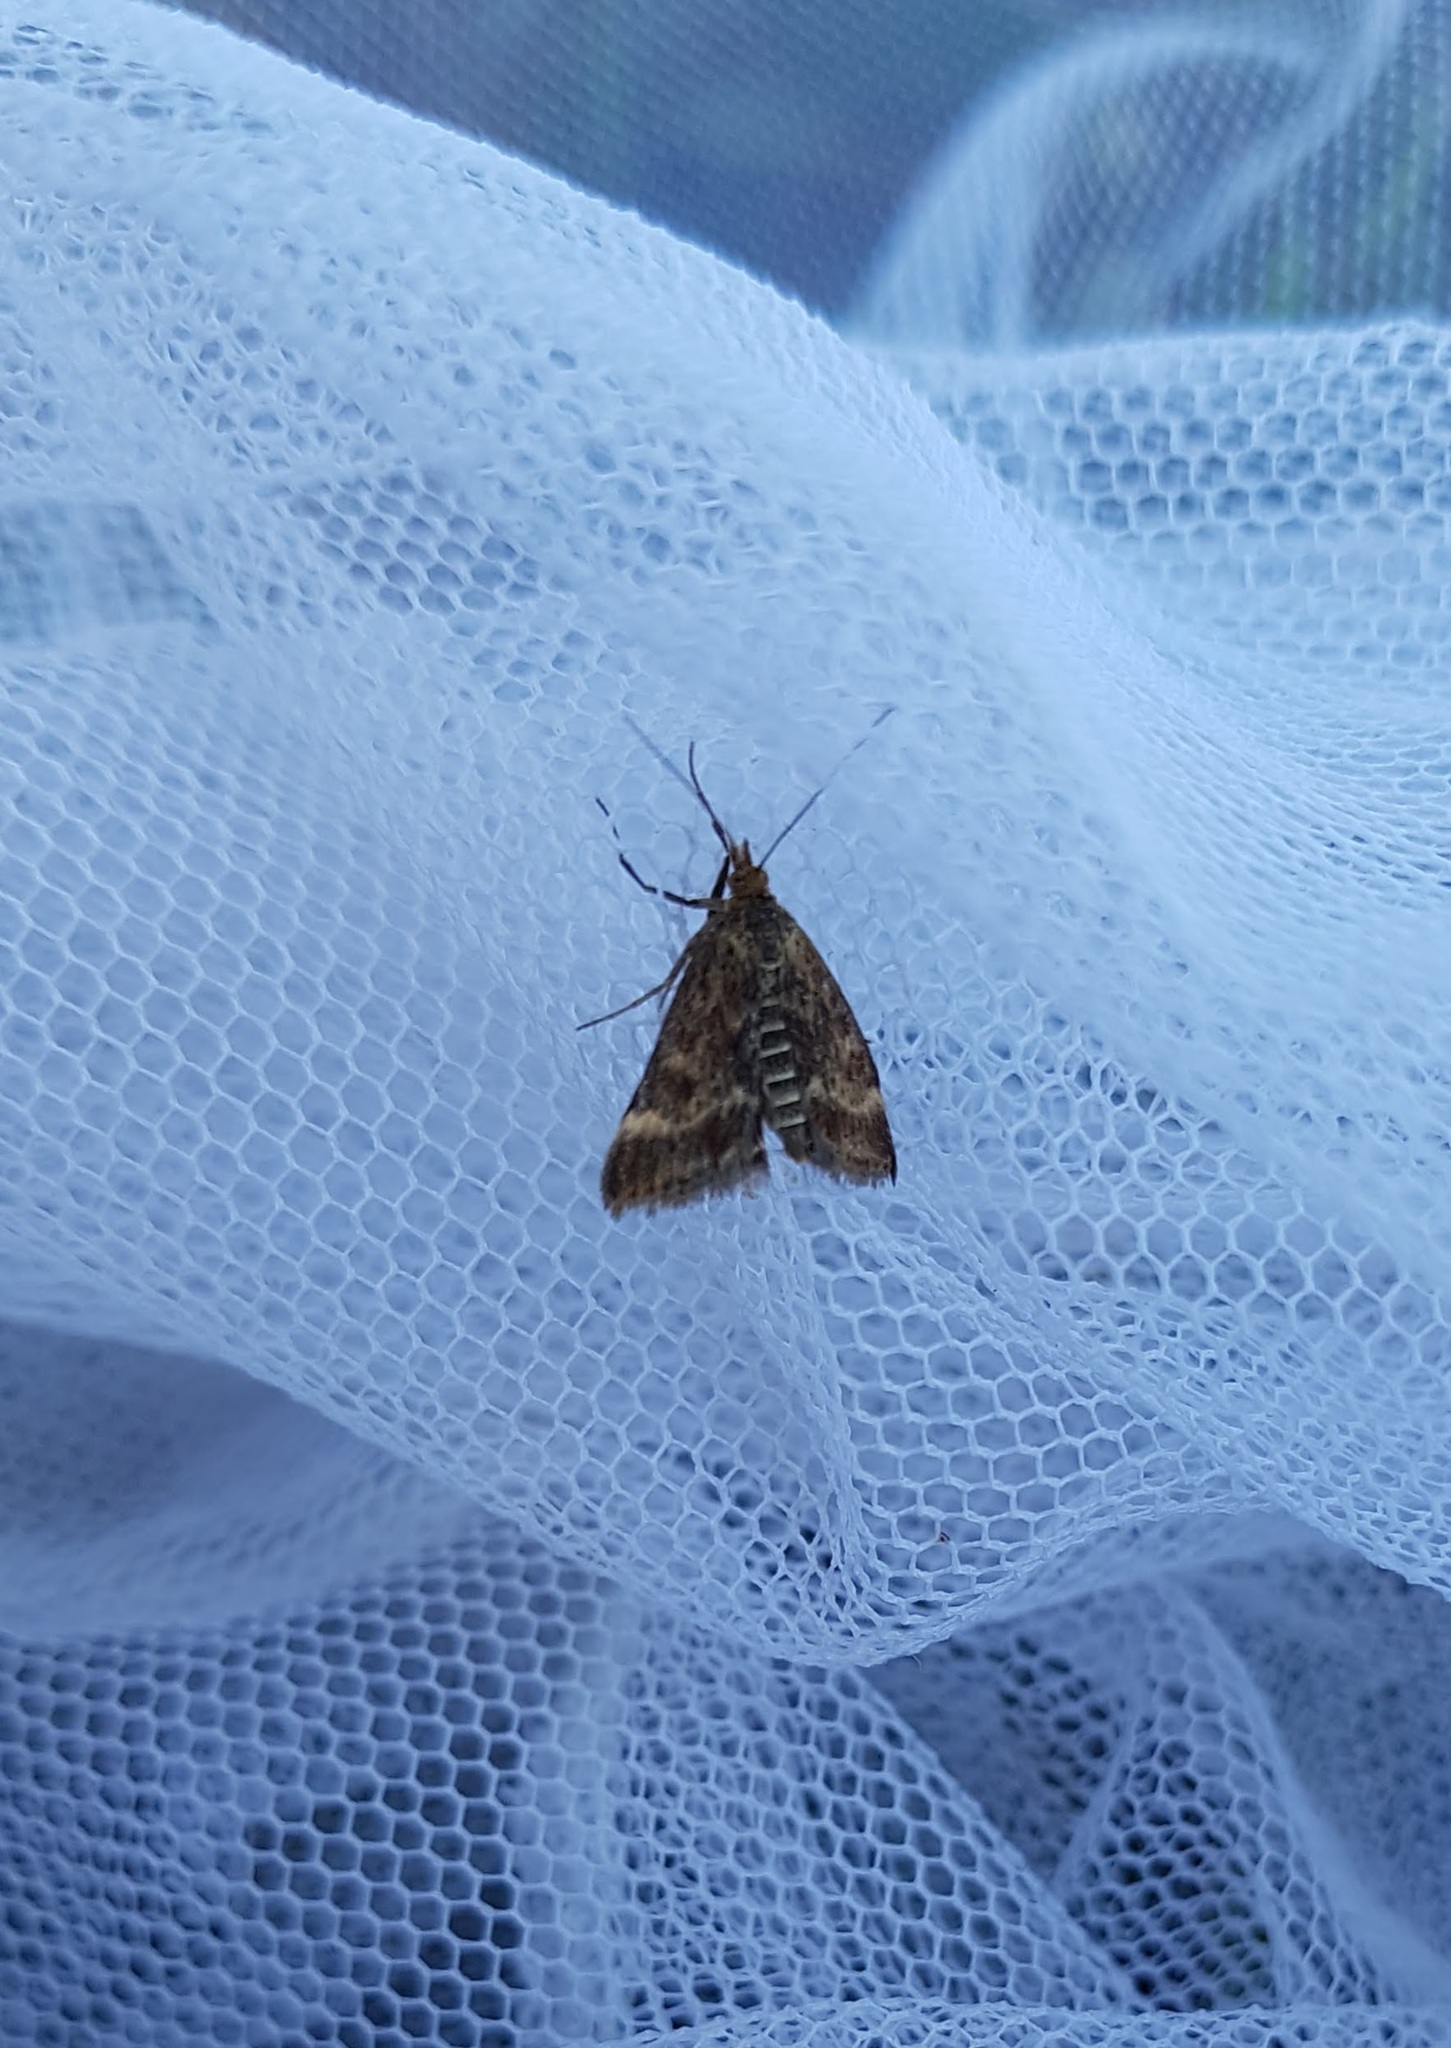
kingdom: Animalia
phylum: Arthropoda
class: Insecta
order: Lepidoptera
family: Crambidae
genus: Pyrausta
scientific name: Pyrausta despicata
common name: Straw-barred pearl
